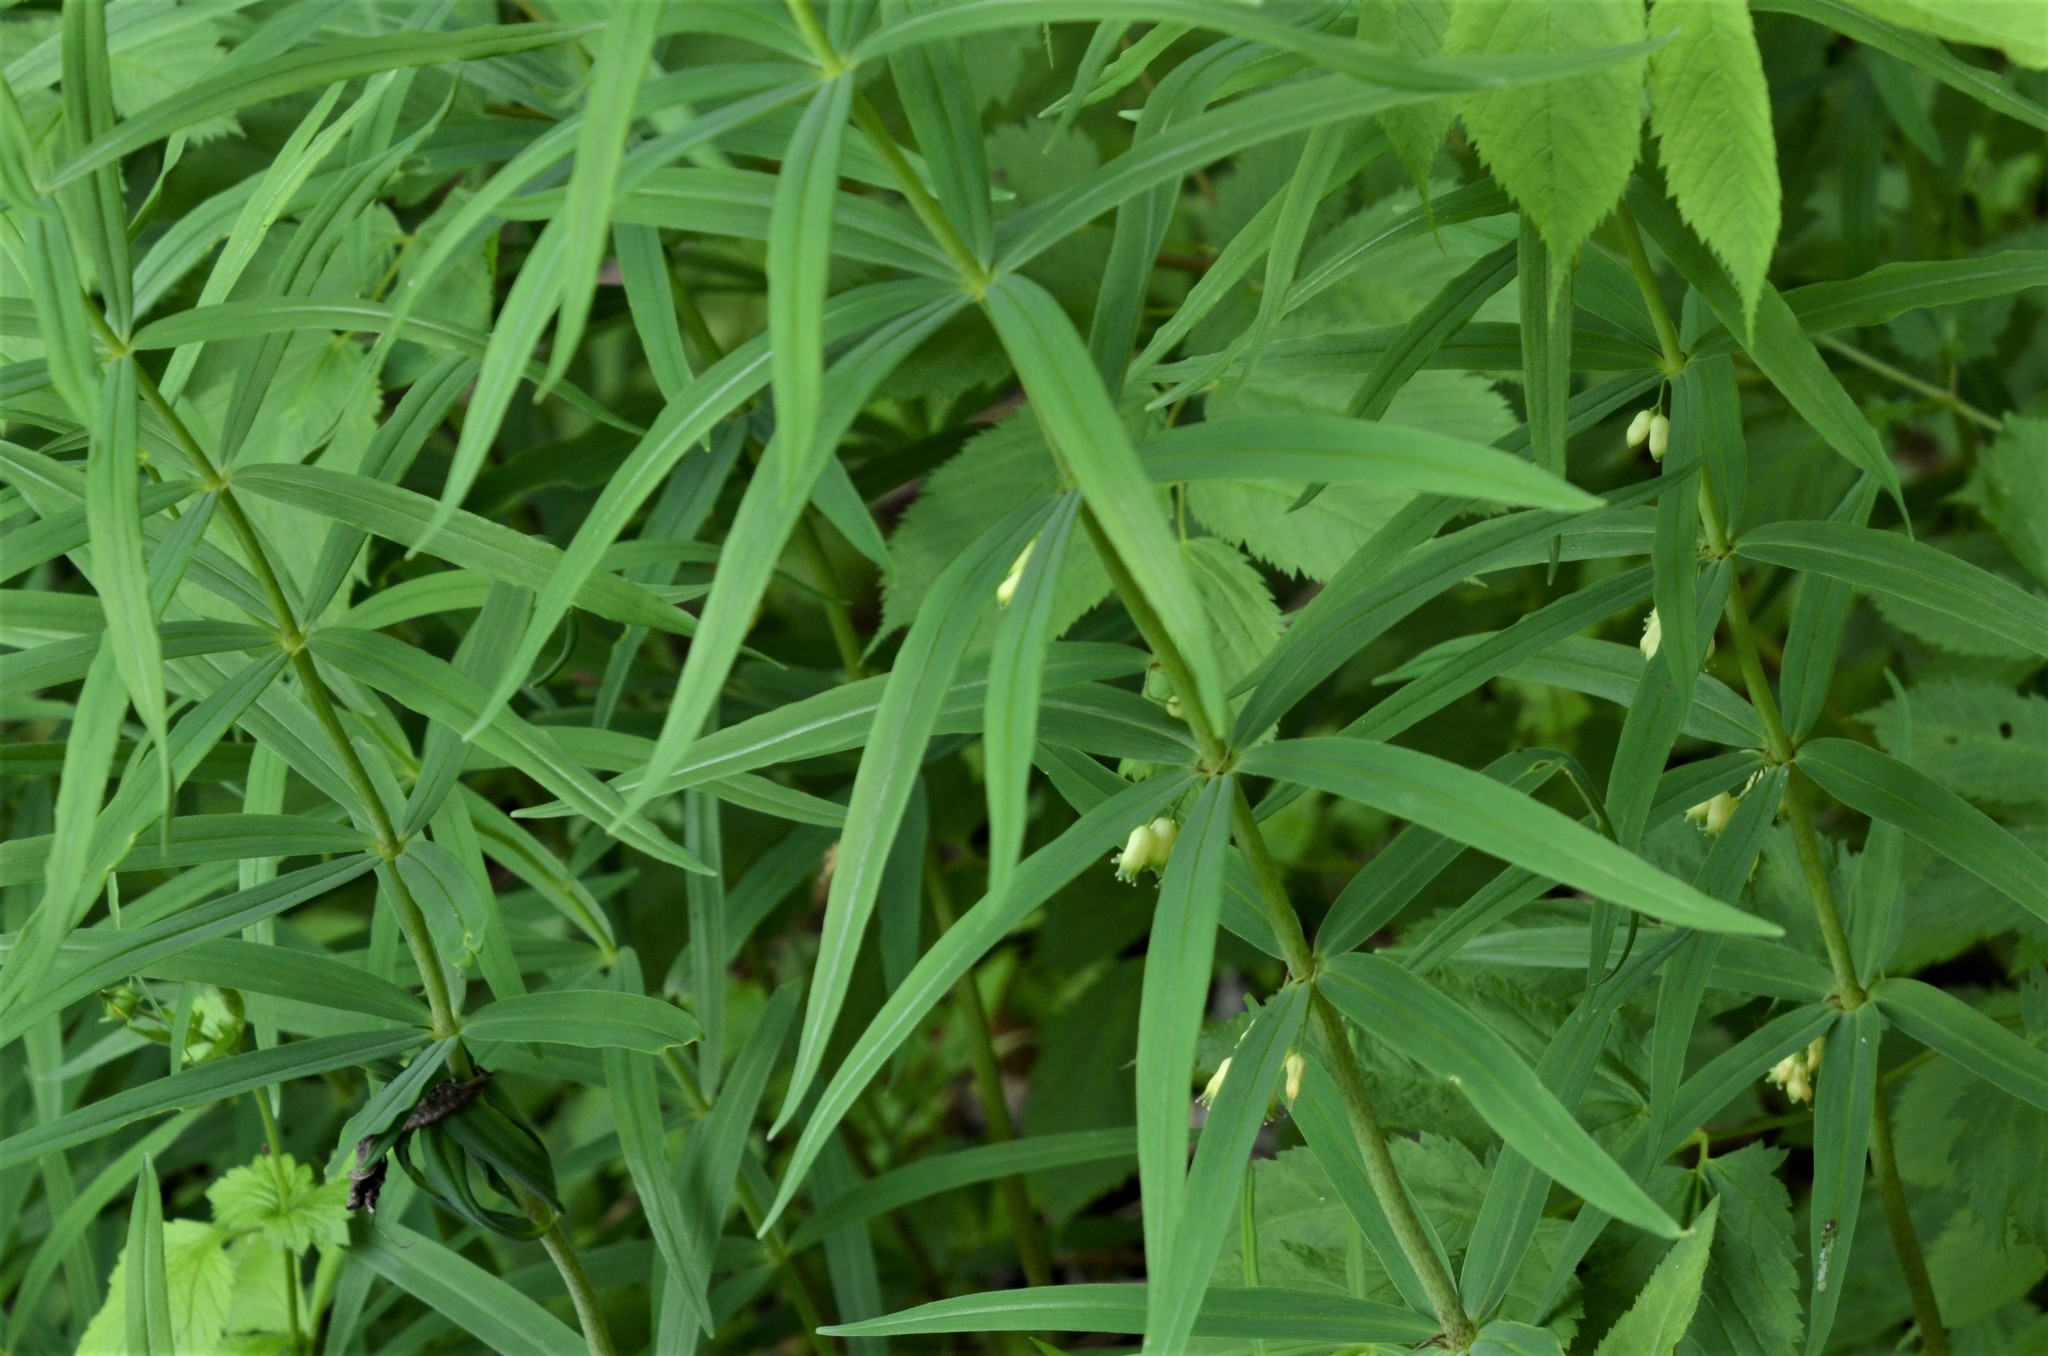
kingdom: Plantae
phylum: Tracheophyta
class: Liliopsida
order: Asparagales
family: Asparagaceae
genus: Polygonatum
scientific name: Polygonatum verticillatum
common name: Whorled solomon's-seal
